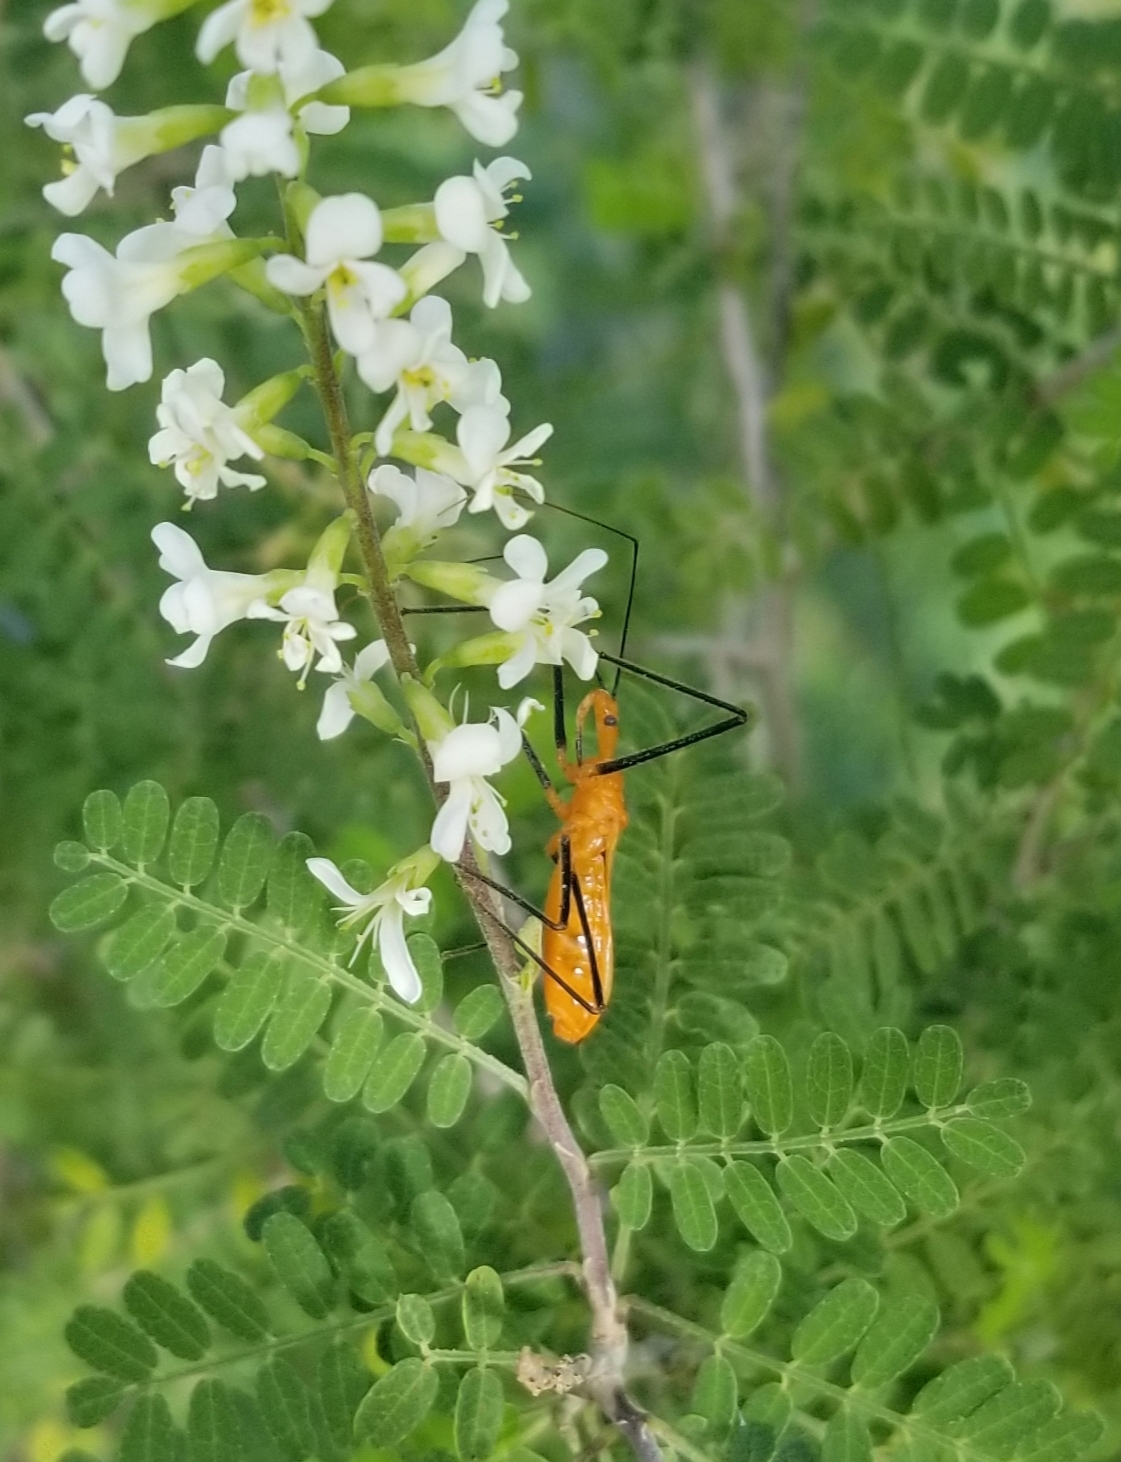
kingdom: Animalia
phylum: Arthropoda
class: Insecta
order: Hemiptera
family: Reduviidae
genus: Zelus
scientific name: Zelus longipes
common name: Milkweed assassin bug
